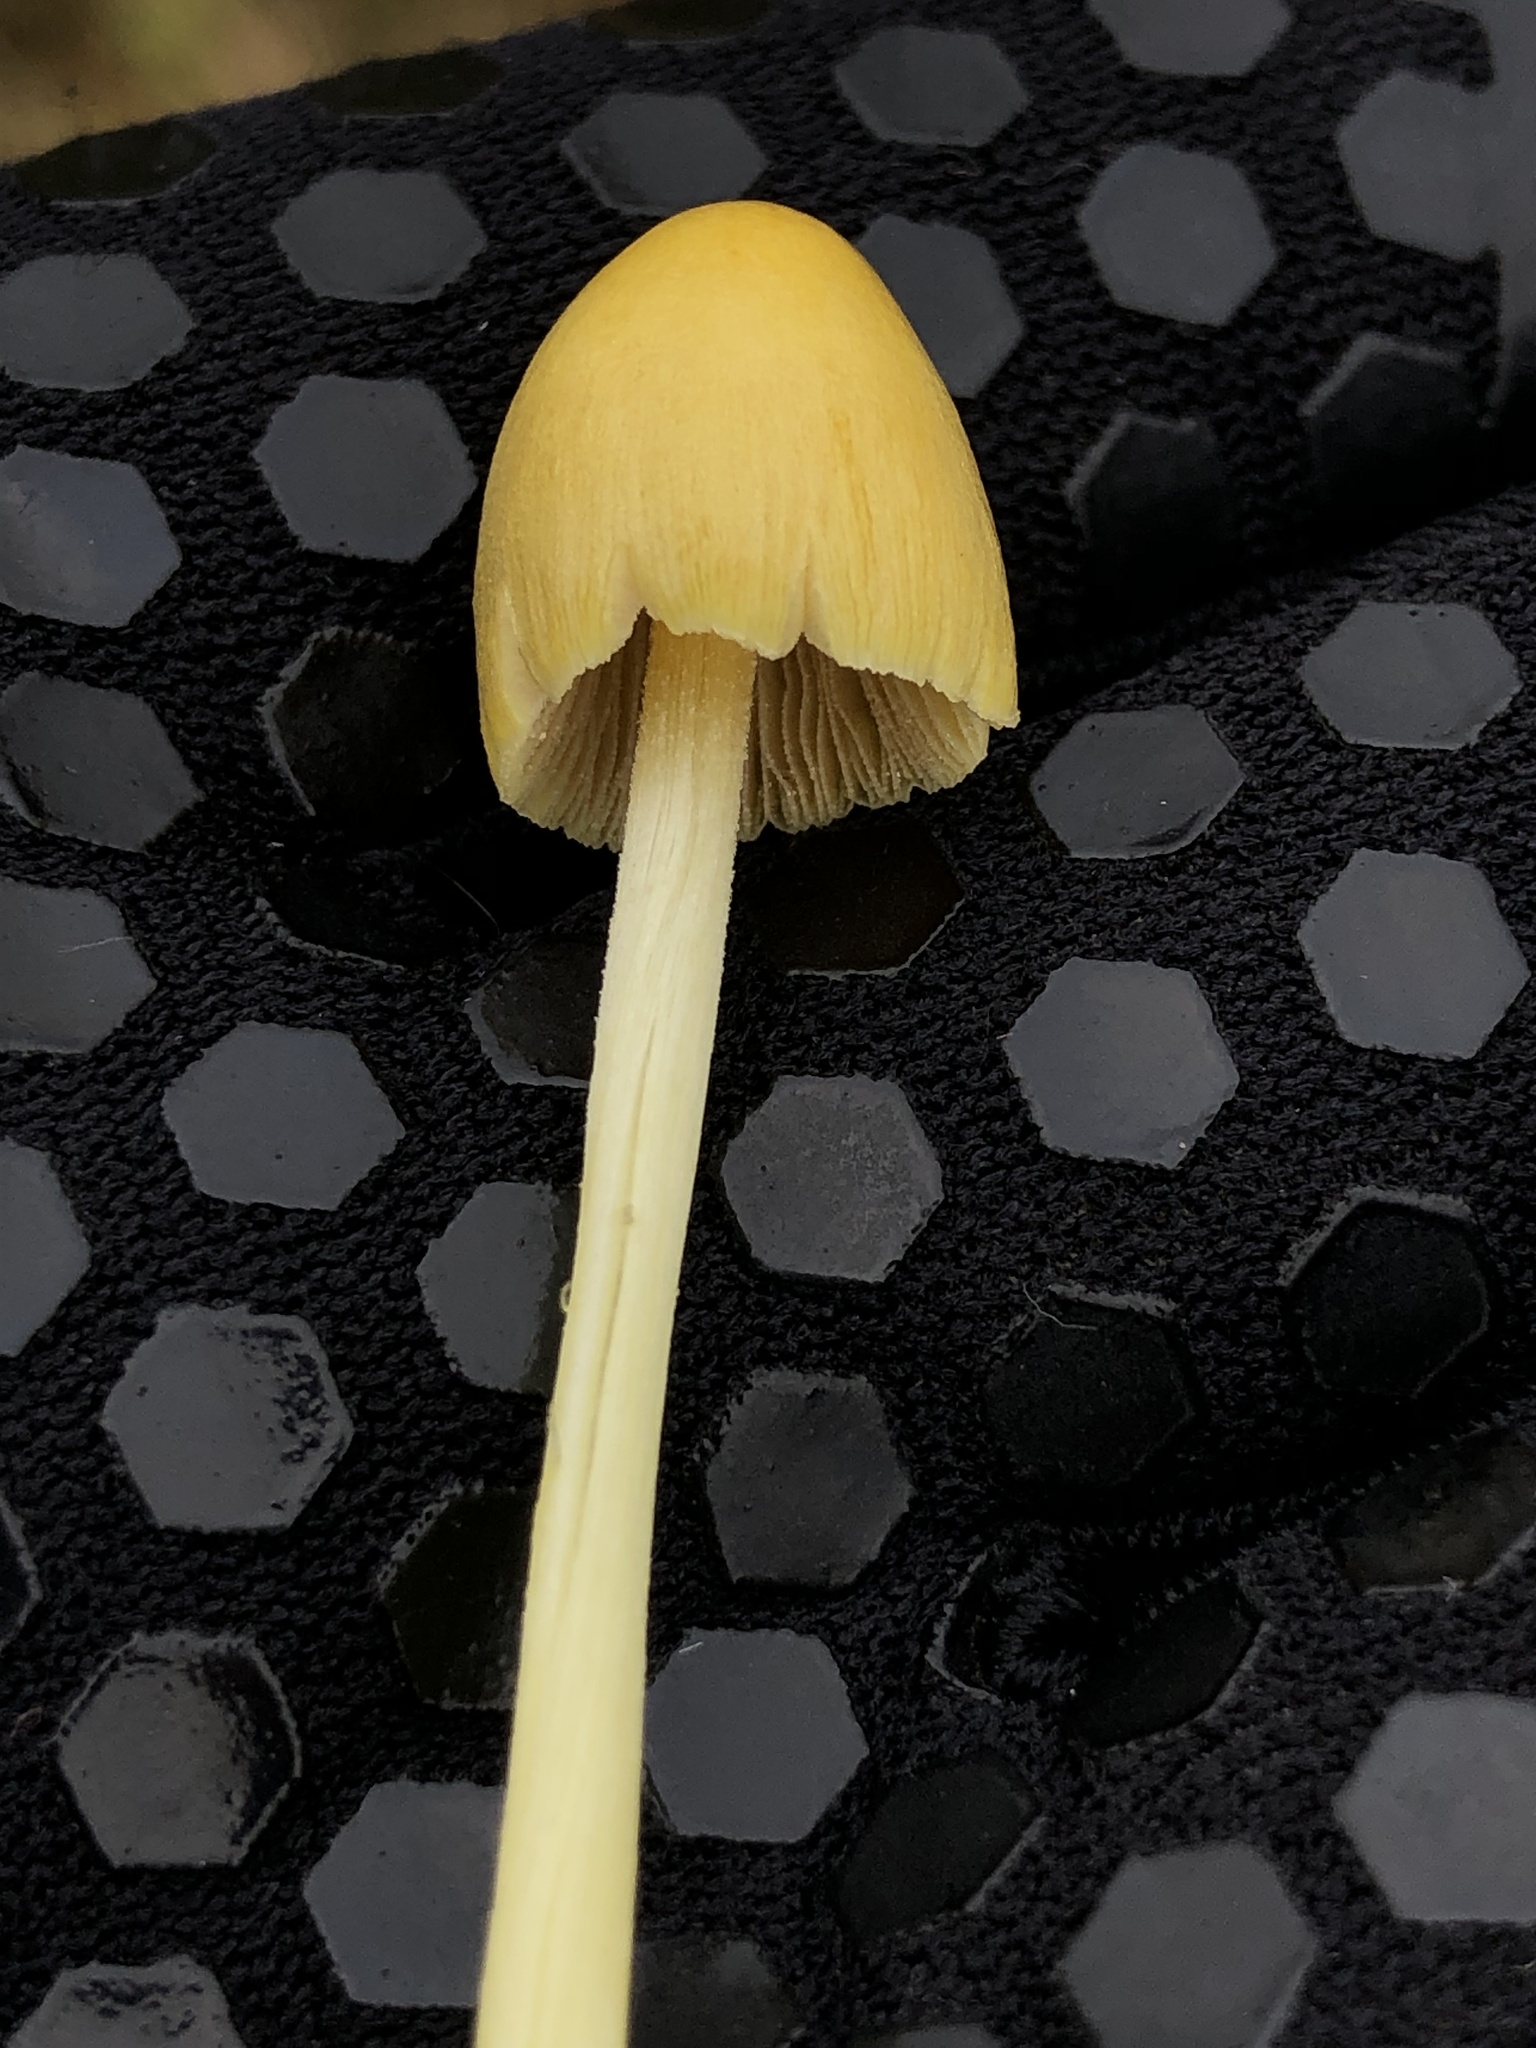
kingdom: Fungi
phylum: Basidiomycota
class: Agaricomycetes
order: Agaricales
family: Bolbitiaceae
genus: Bolbitius
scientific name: Bolbitius titubans
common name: Yellow fieldcap
